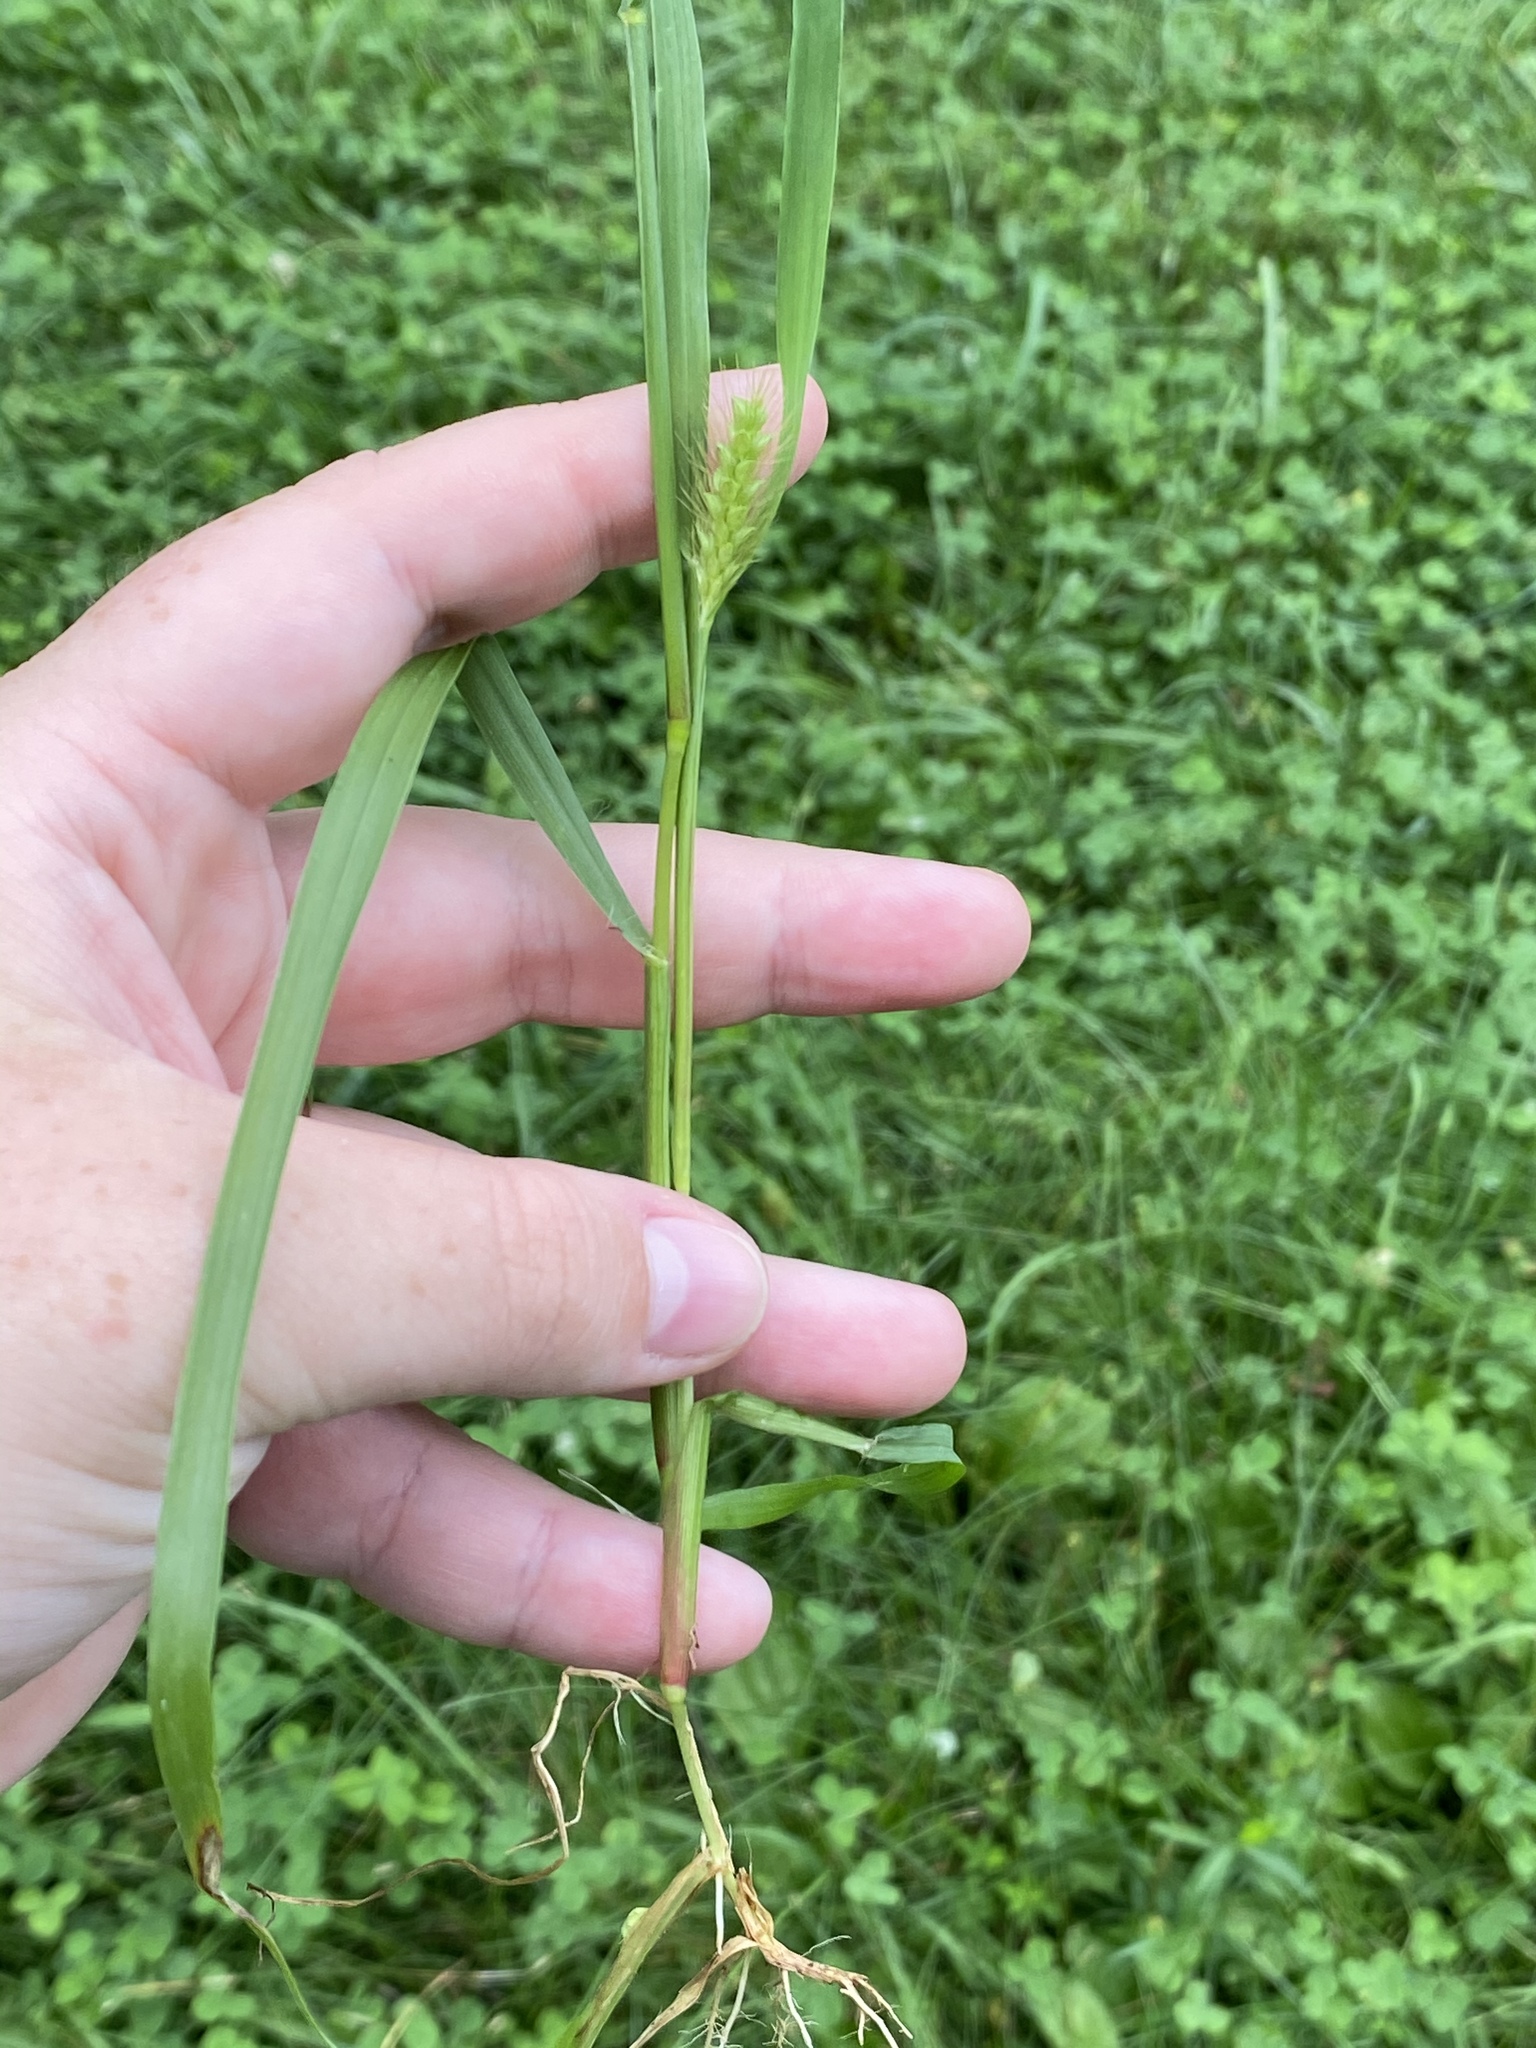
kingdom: Plantae
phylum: Tracheophyta
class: Liliopsida
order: Poales
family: Poaceae
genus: Setaria
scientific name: Setaria pumila
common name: Yellow bristle-grass
